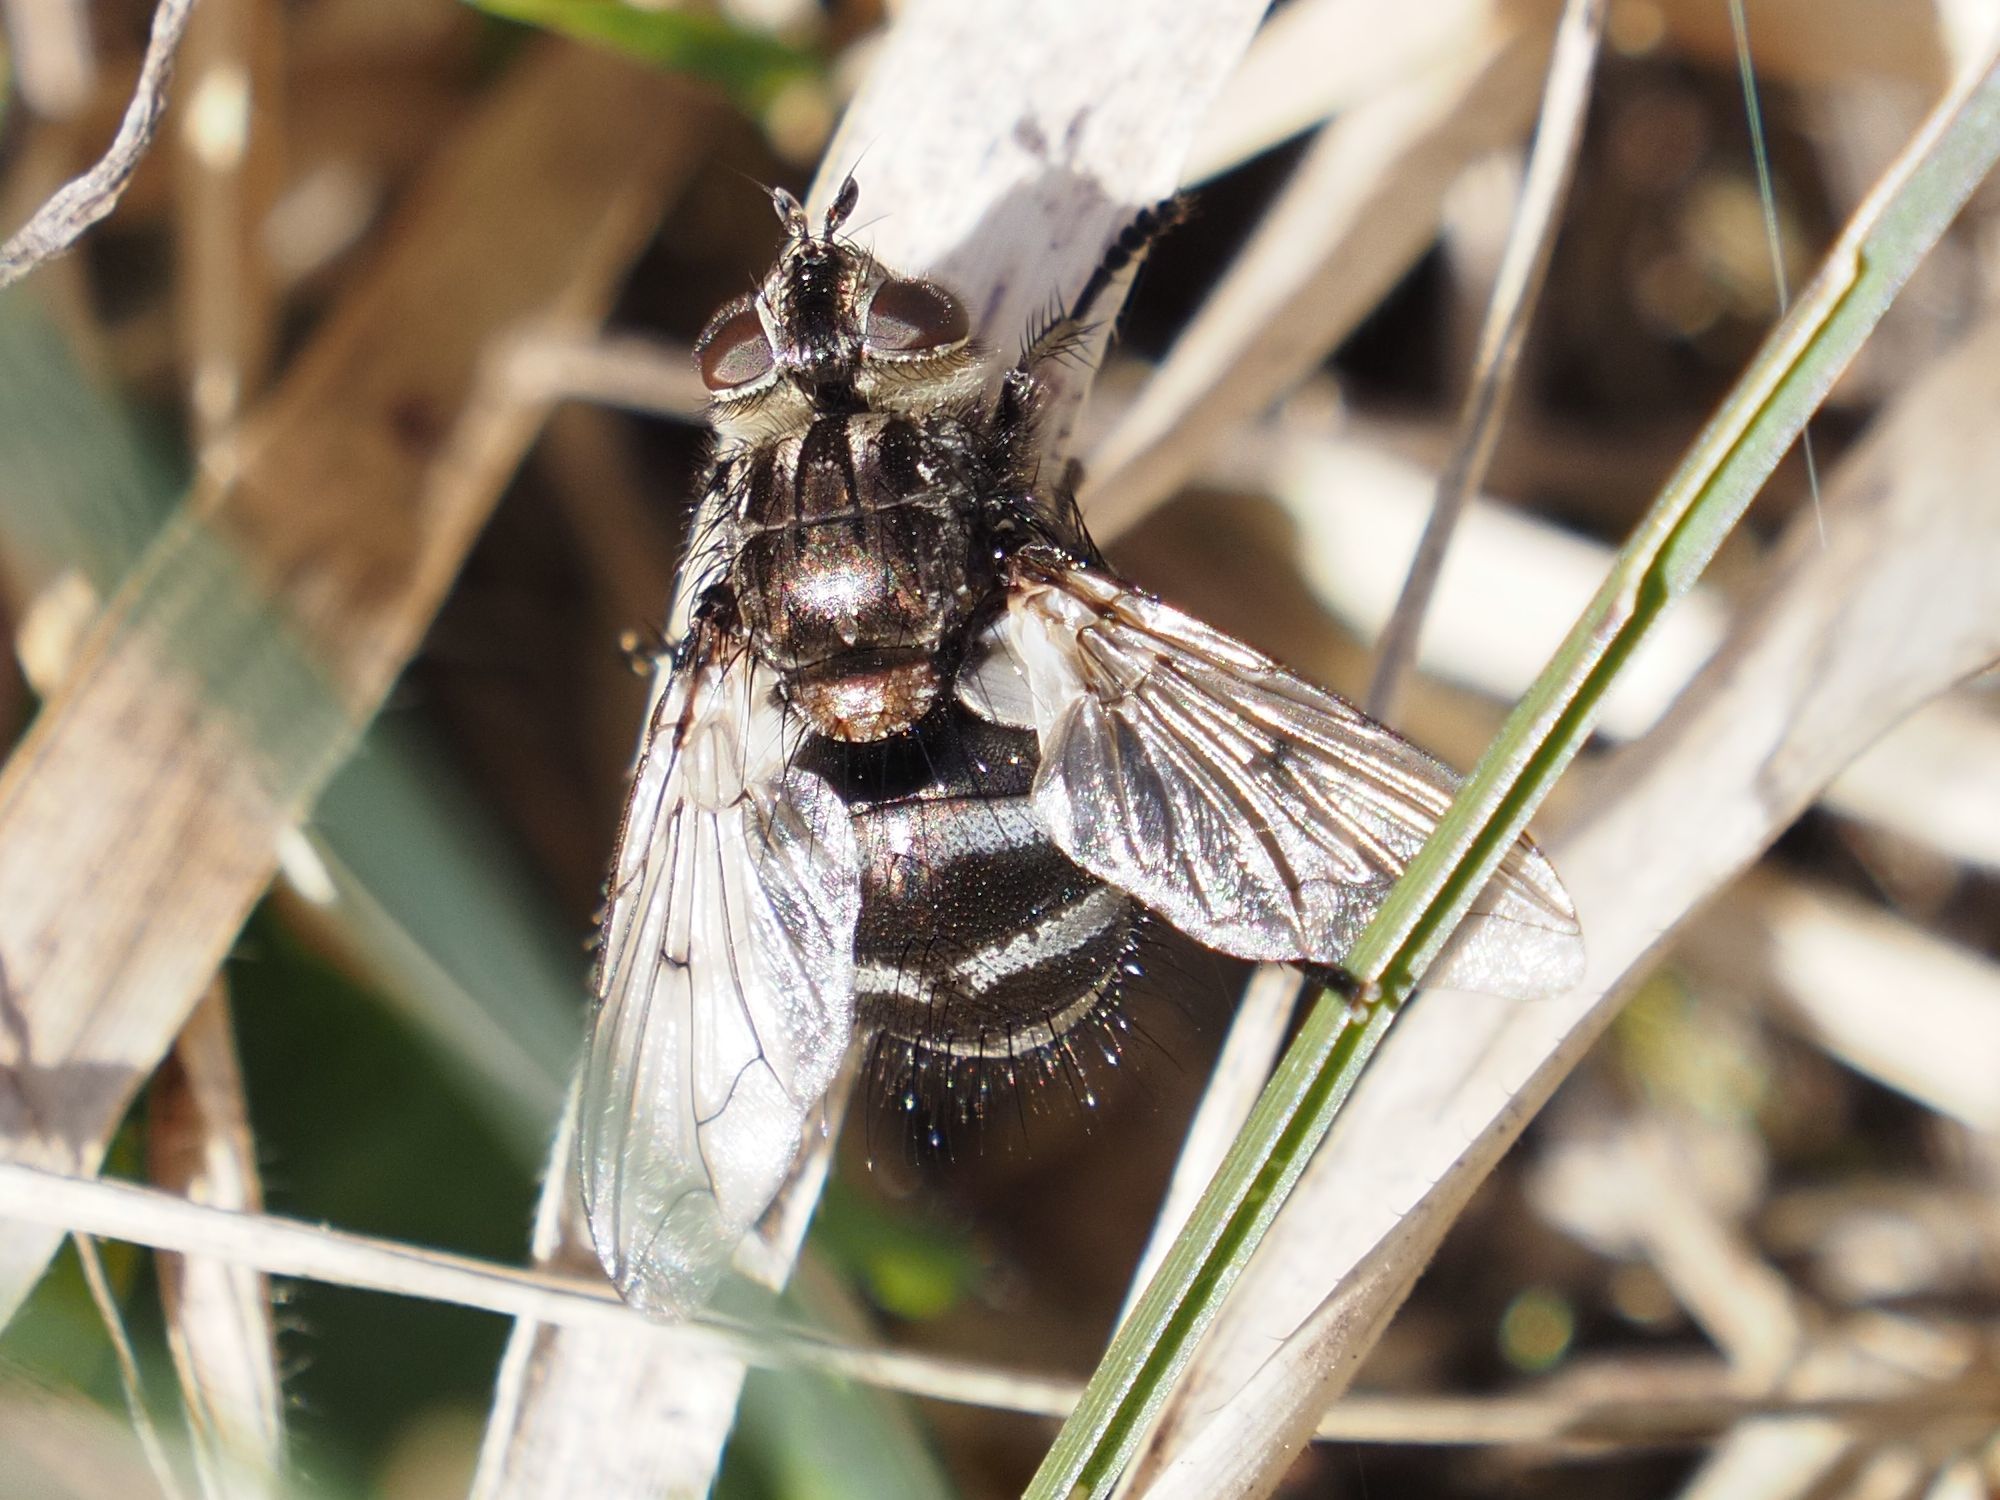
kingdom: Animalia
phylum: Arthropoda
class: Insecta
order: Diptera
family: Tachinidae
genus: Panzeria
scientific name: Panzeria puparum
